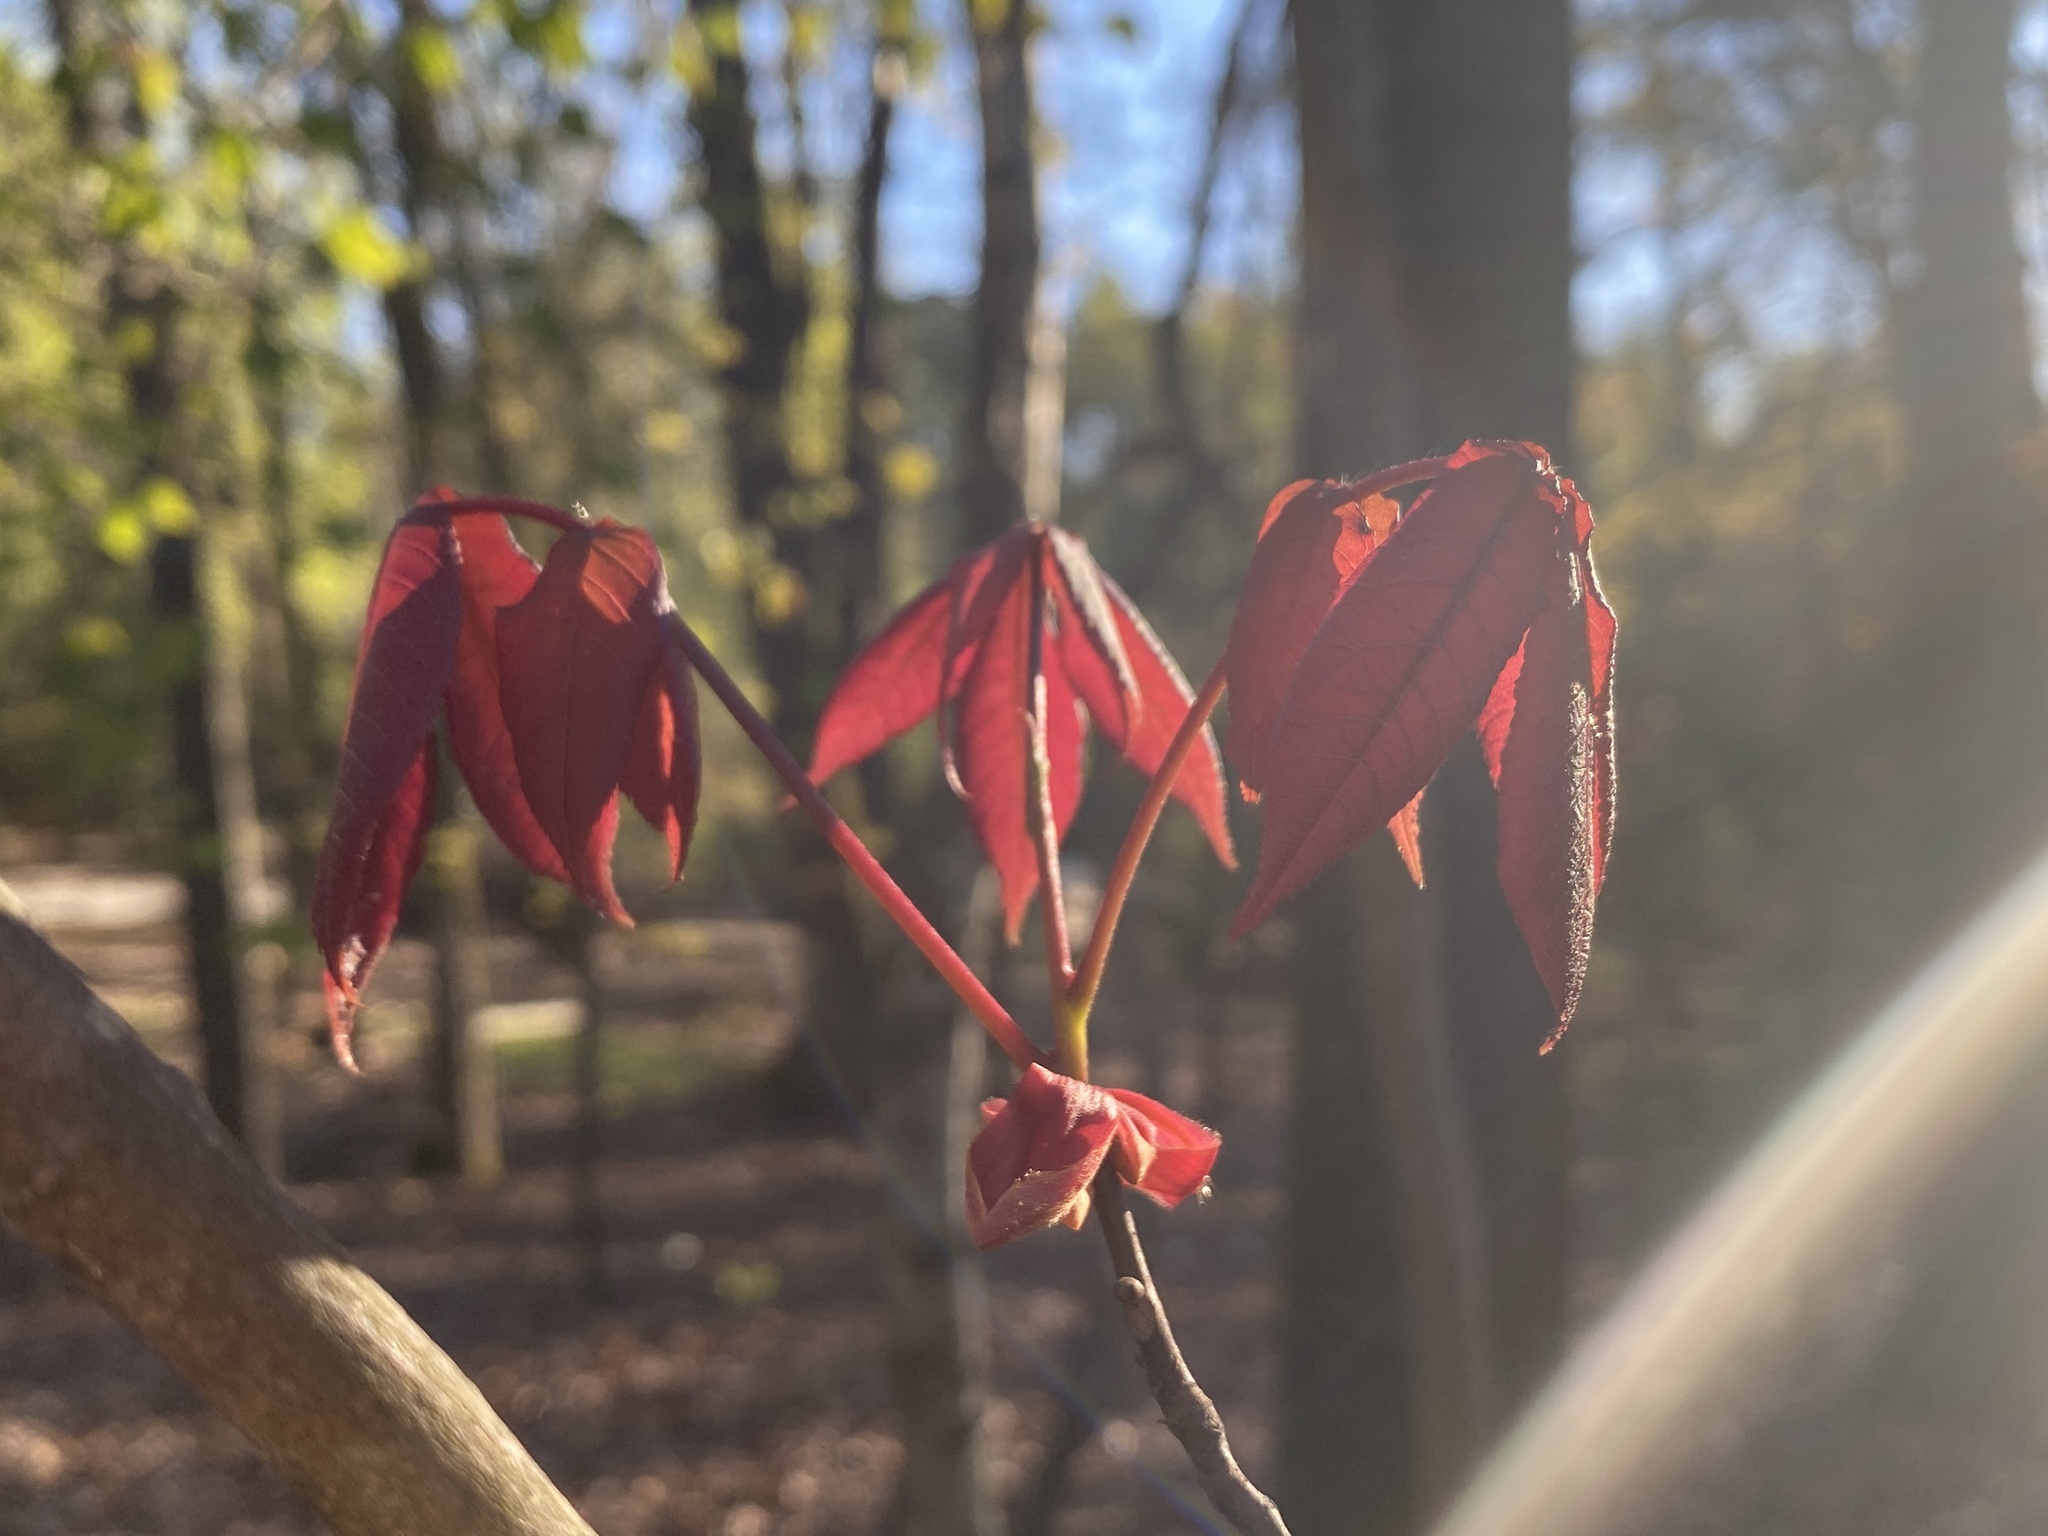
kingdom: Plantae
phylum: Tracheophyta
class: Magnoliopsida
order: Fagales
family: Juglandaceae
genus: Carya
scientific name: Carya glabra
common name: Pignut hickory
